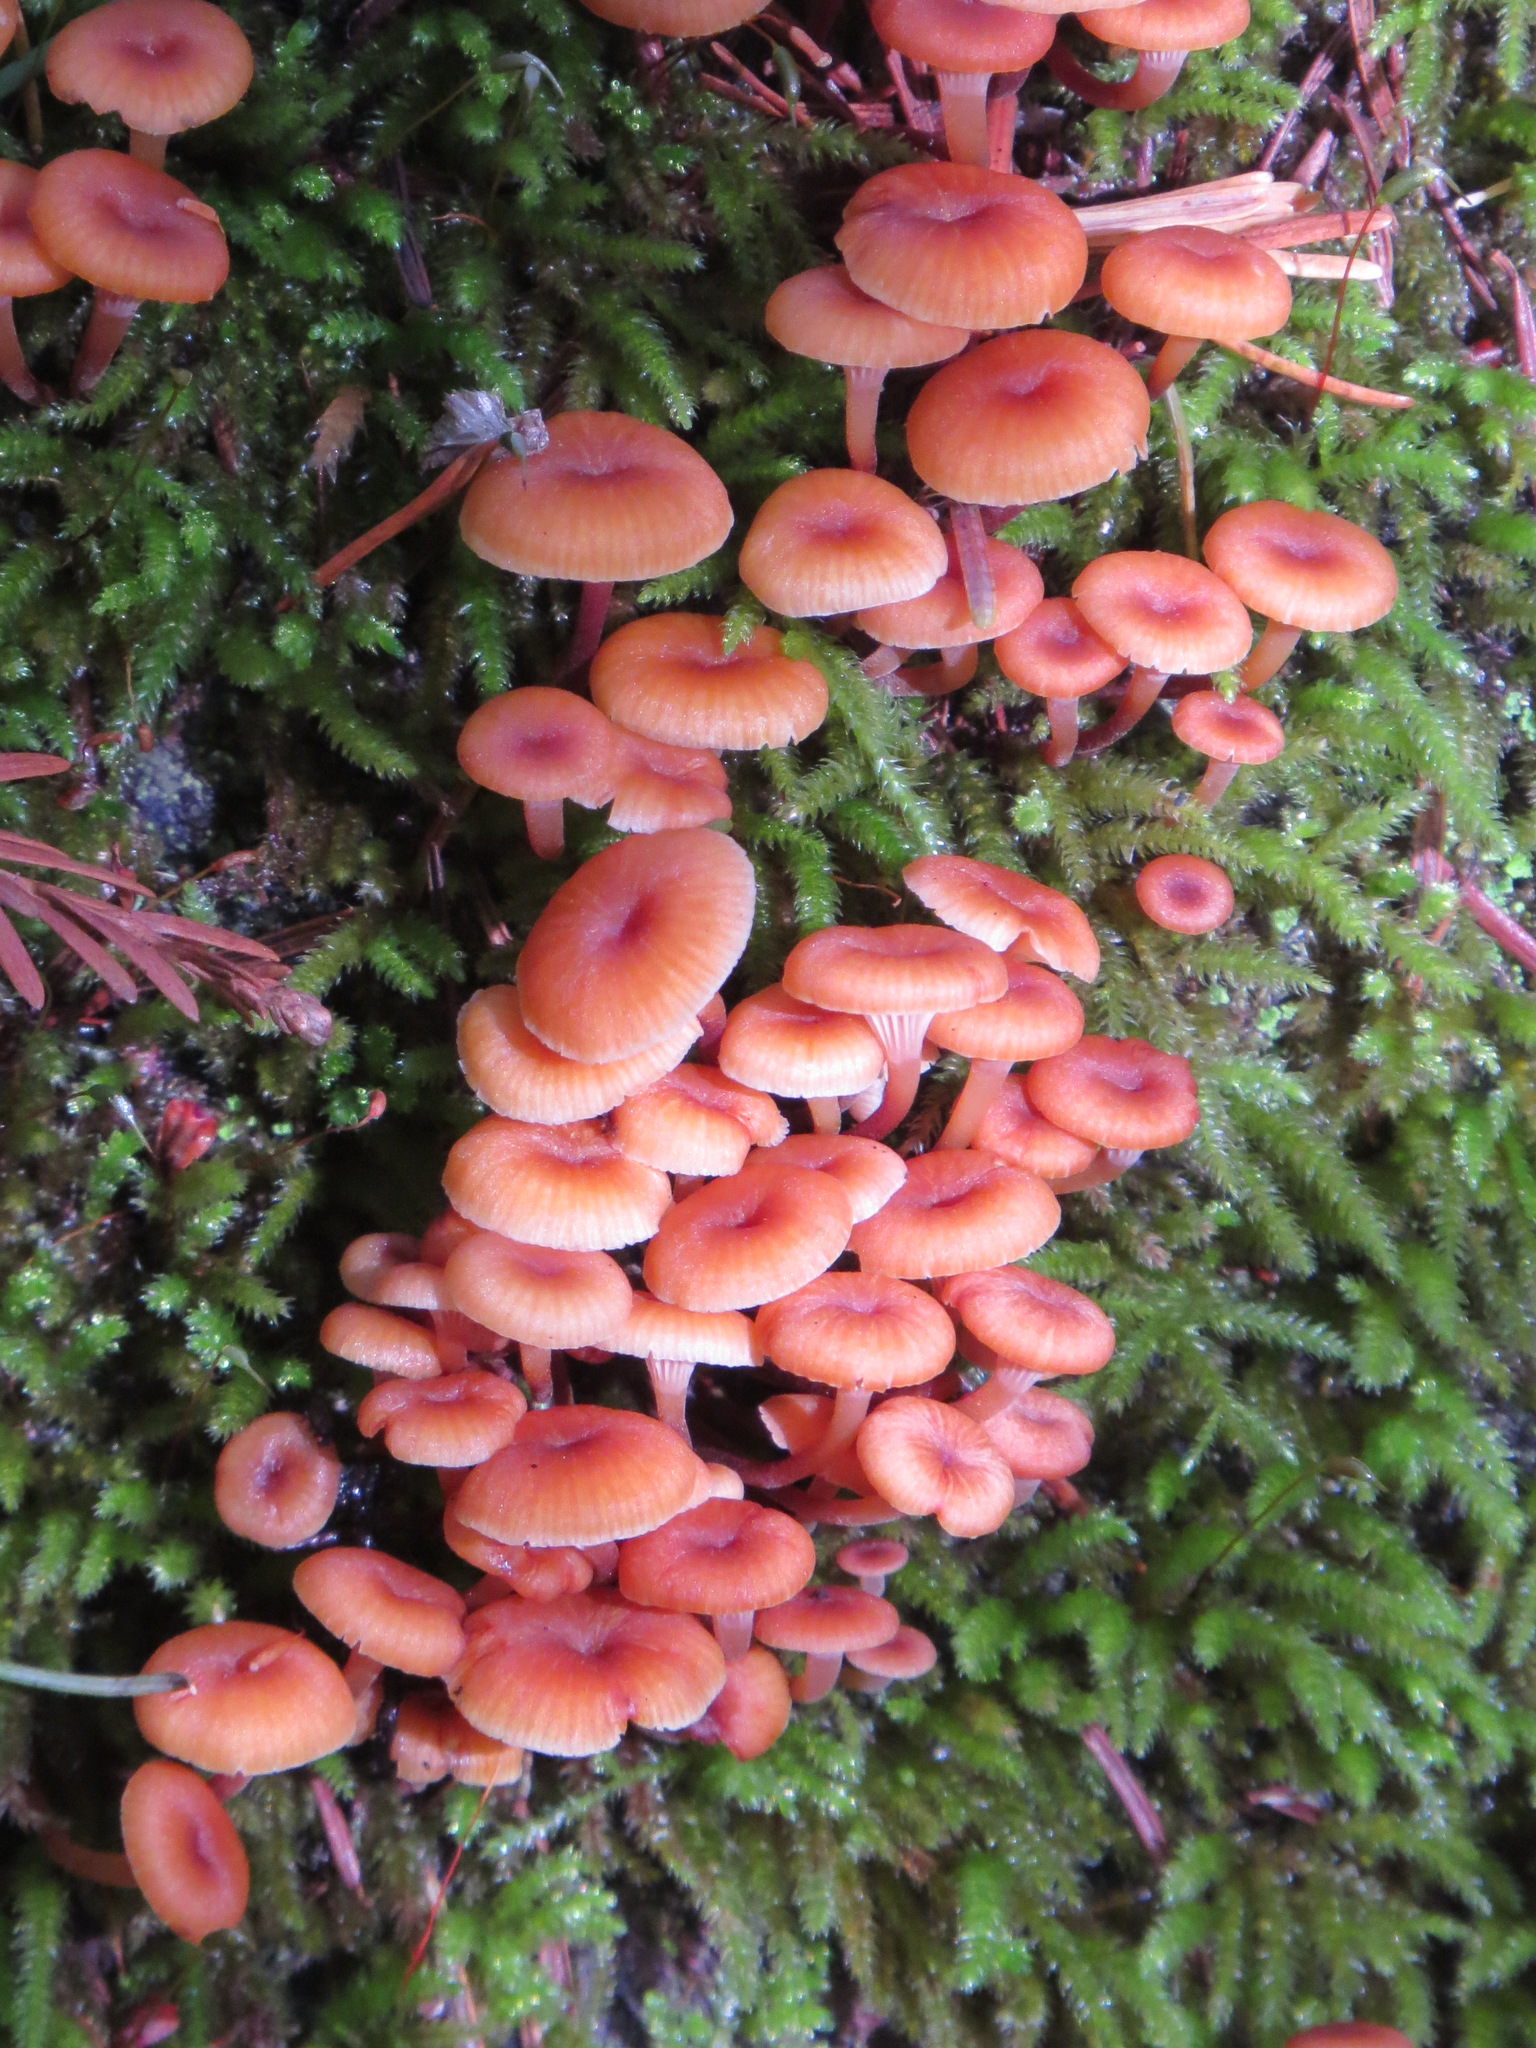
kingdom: Fungi
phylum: Basidiomycota
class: Agaricomycetes
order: Agaricales
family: Mycenaceae
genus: Xeromphalina
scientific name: Xeromphalina campanella
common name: Pinewood gingertail
